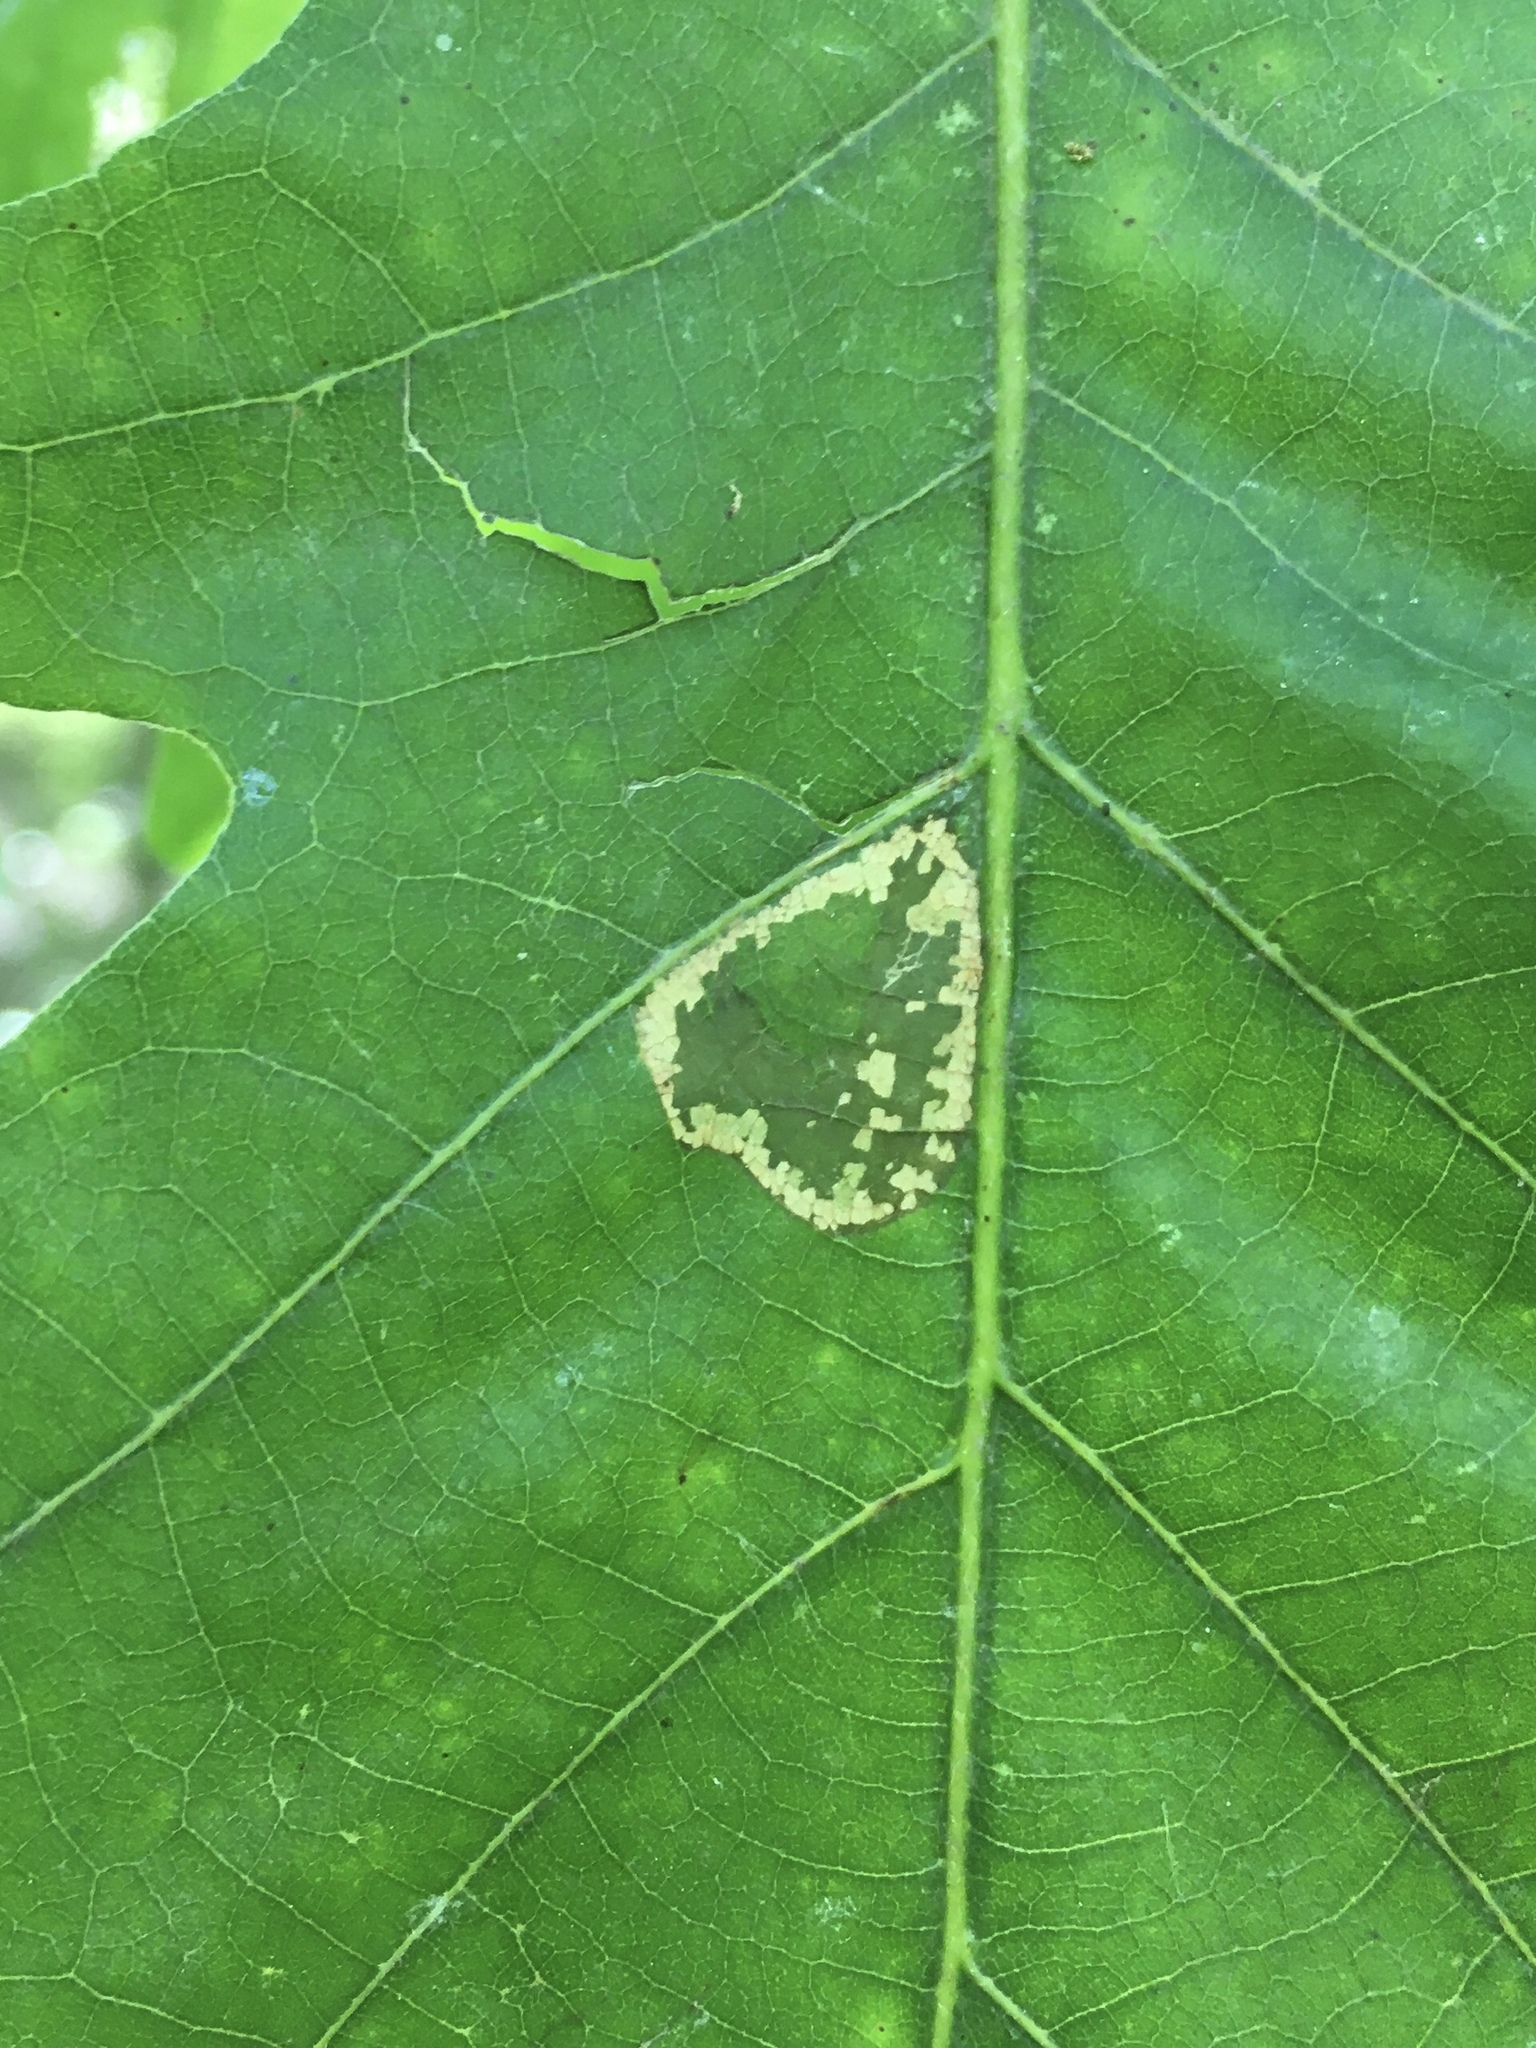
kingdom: Animalia
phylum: Arthropoda
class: Insecta
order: Lepidoptera
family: Gracillariidae
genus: Phyllonorycter
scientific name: Phyllonorycter
